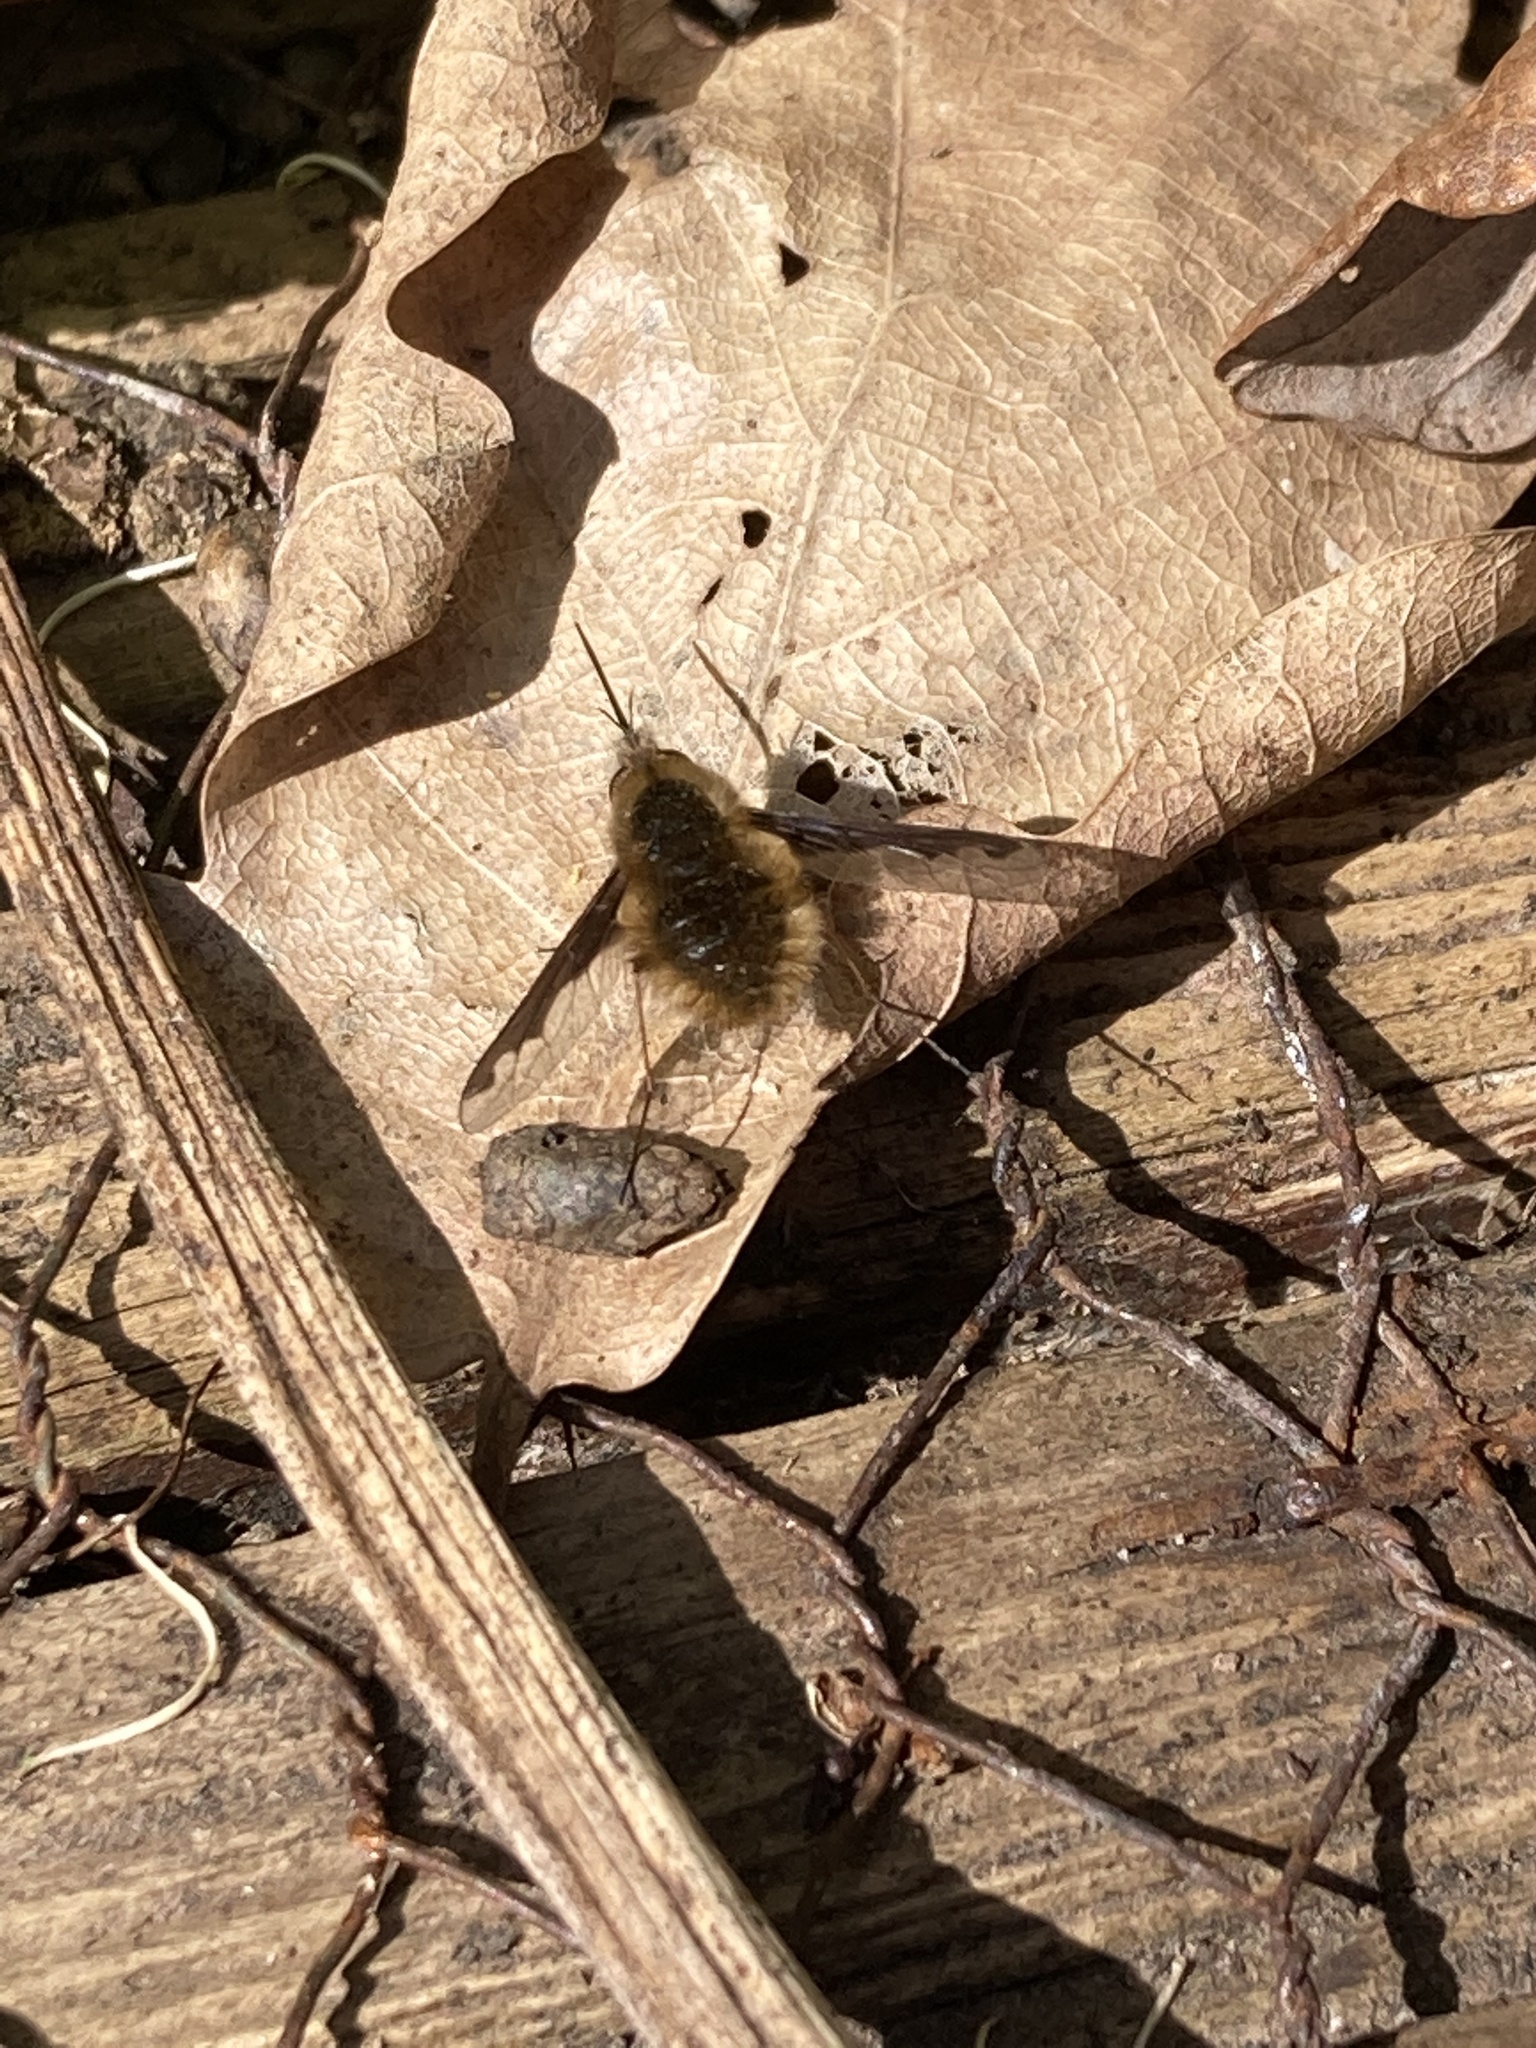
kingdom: Animalia
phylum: Arthropoda
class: Insecta
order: Diptera
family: Bombyliidae
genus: Bombylius
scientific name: Bombylius major
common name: Bee fly
